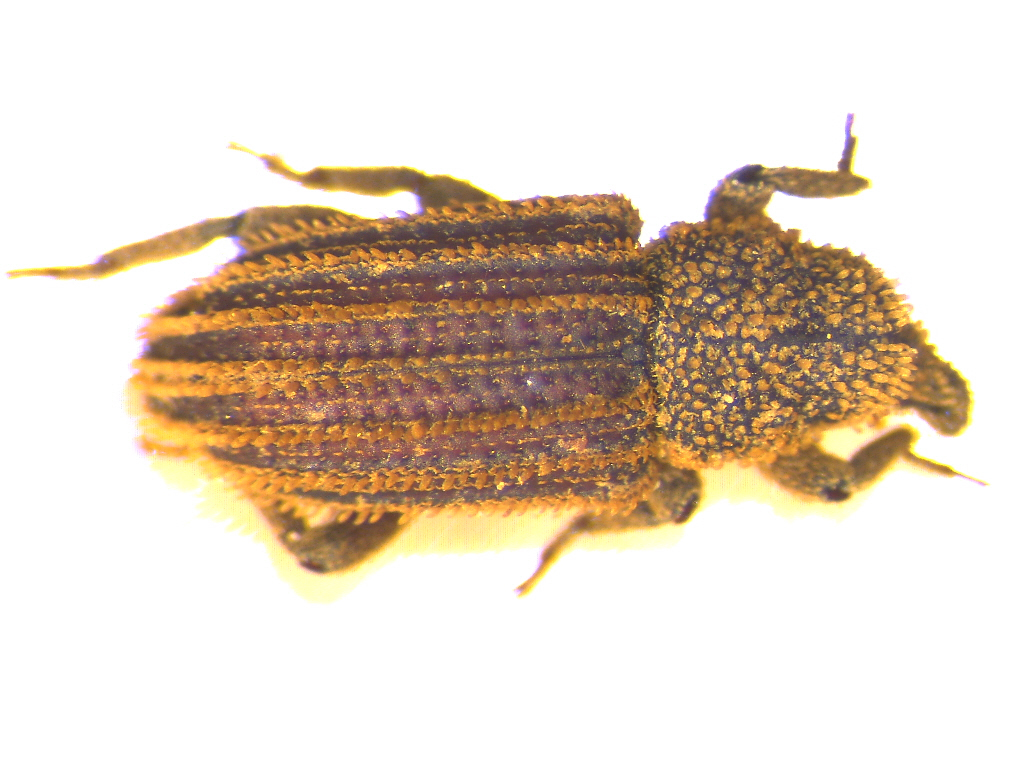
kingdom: Animalia
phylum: Arthropoda
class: Insecta
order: Coleoptera
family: Curculionidae
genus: Acamptus
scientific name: Acamptus echinus
